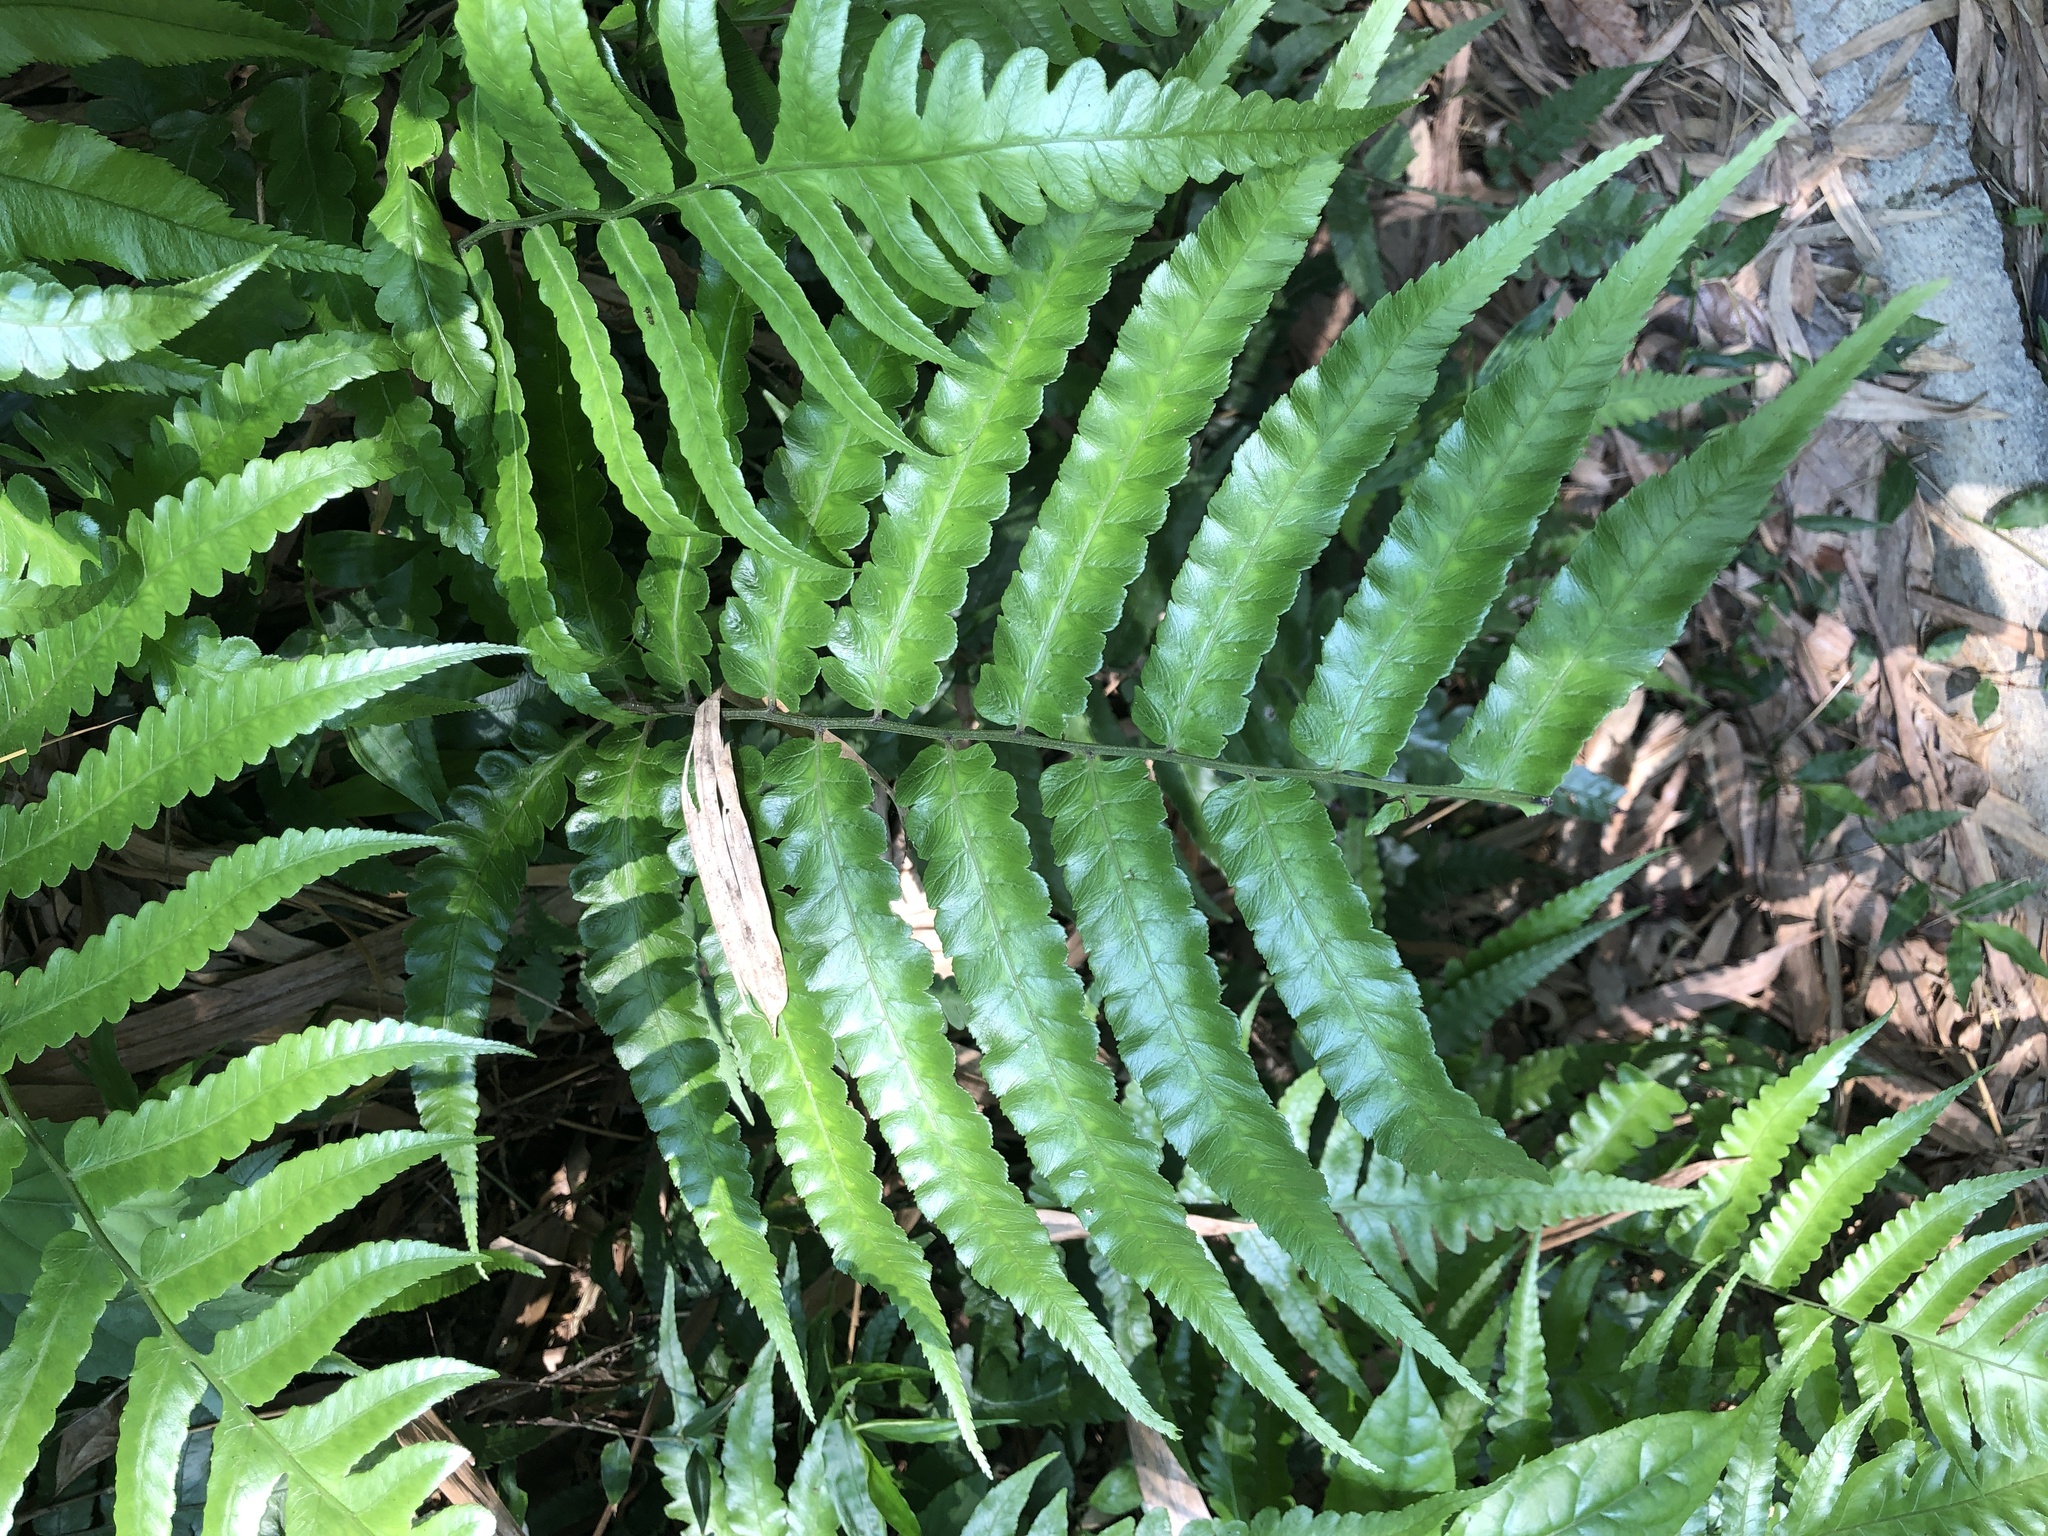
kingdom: Plantae
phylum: Tracheophyta
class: Polypodiopsida
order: Polypodiales
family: Athyriaceae
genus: Diplazium
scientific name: Diplazium dilatatum
